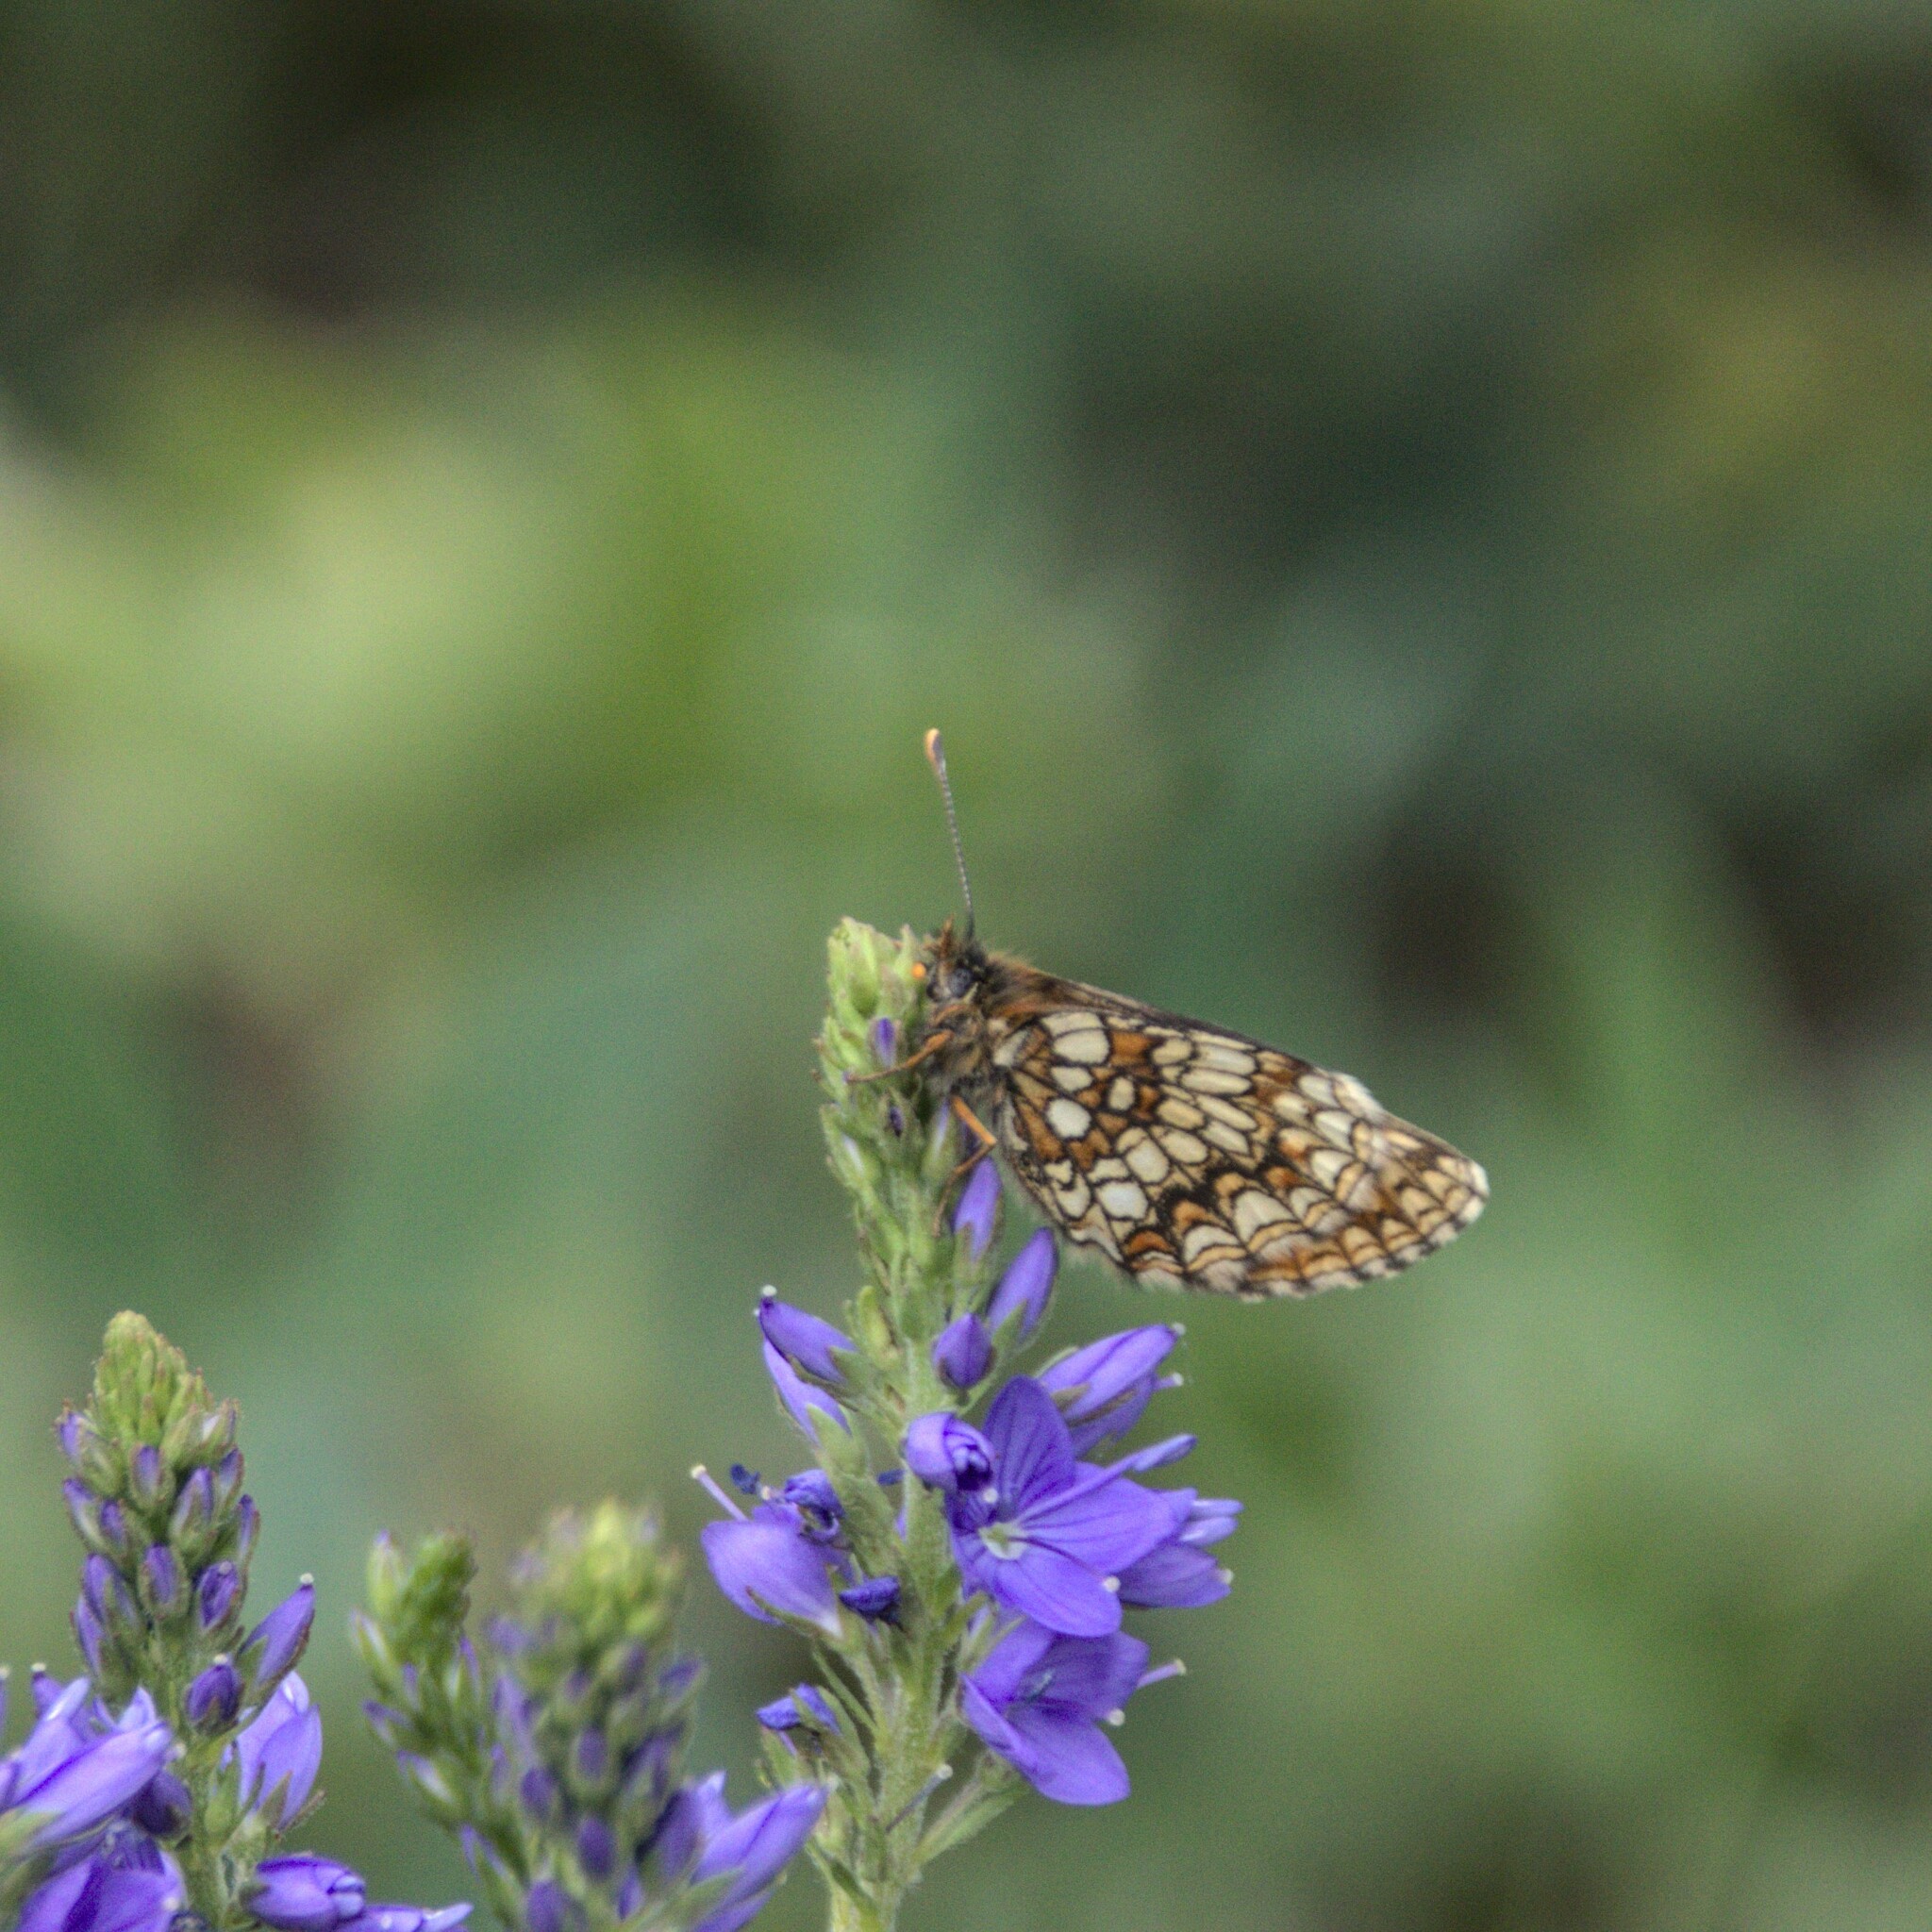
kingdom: Animalia
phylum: Arthropoda
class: Insecta
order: Lepidoptera
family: Nymphalidae
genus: Melitaea
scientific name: Melitaea
